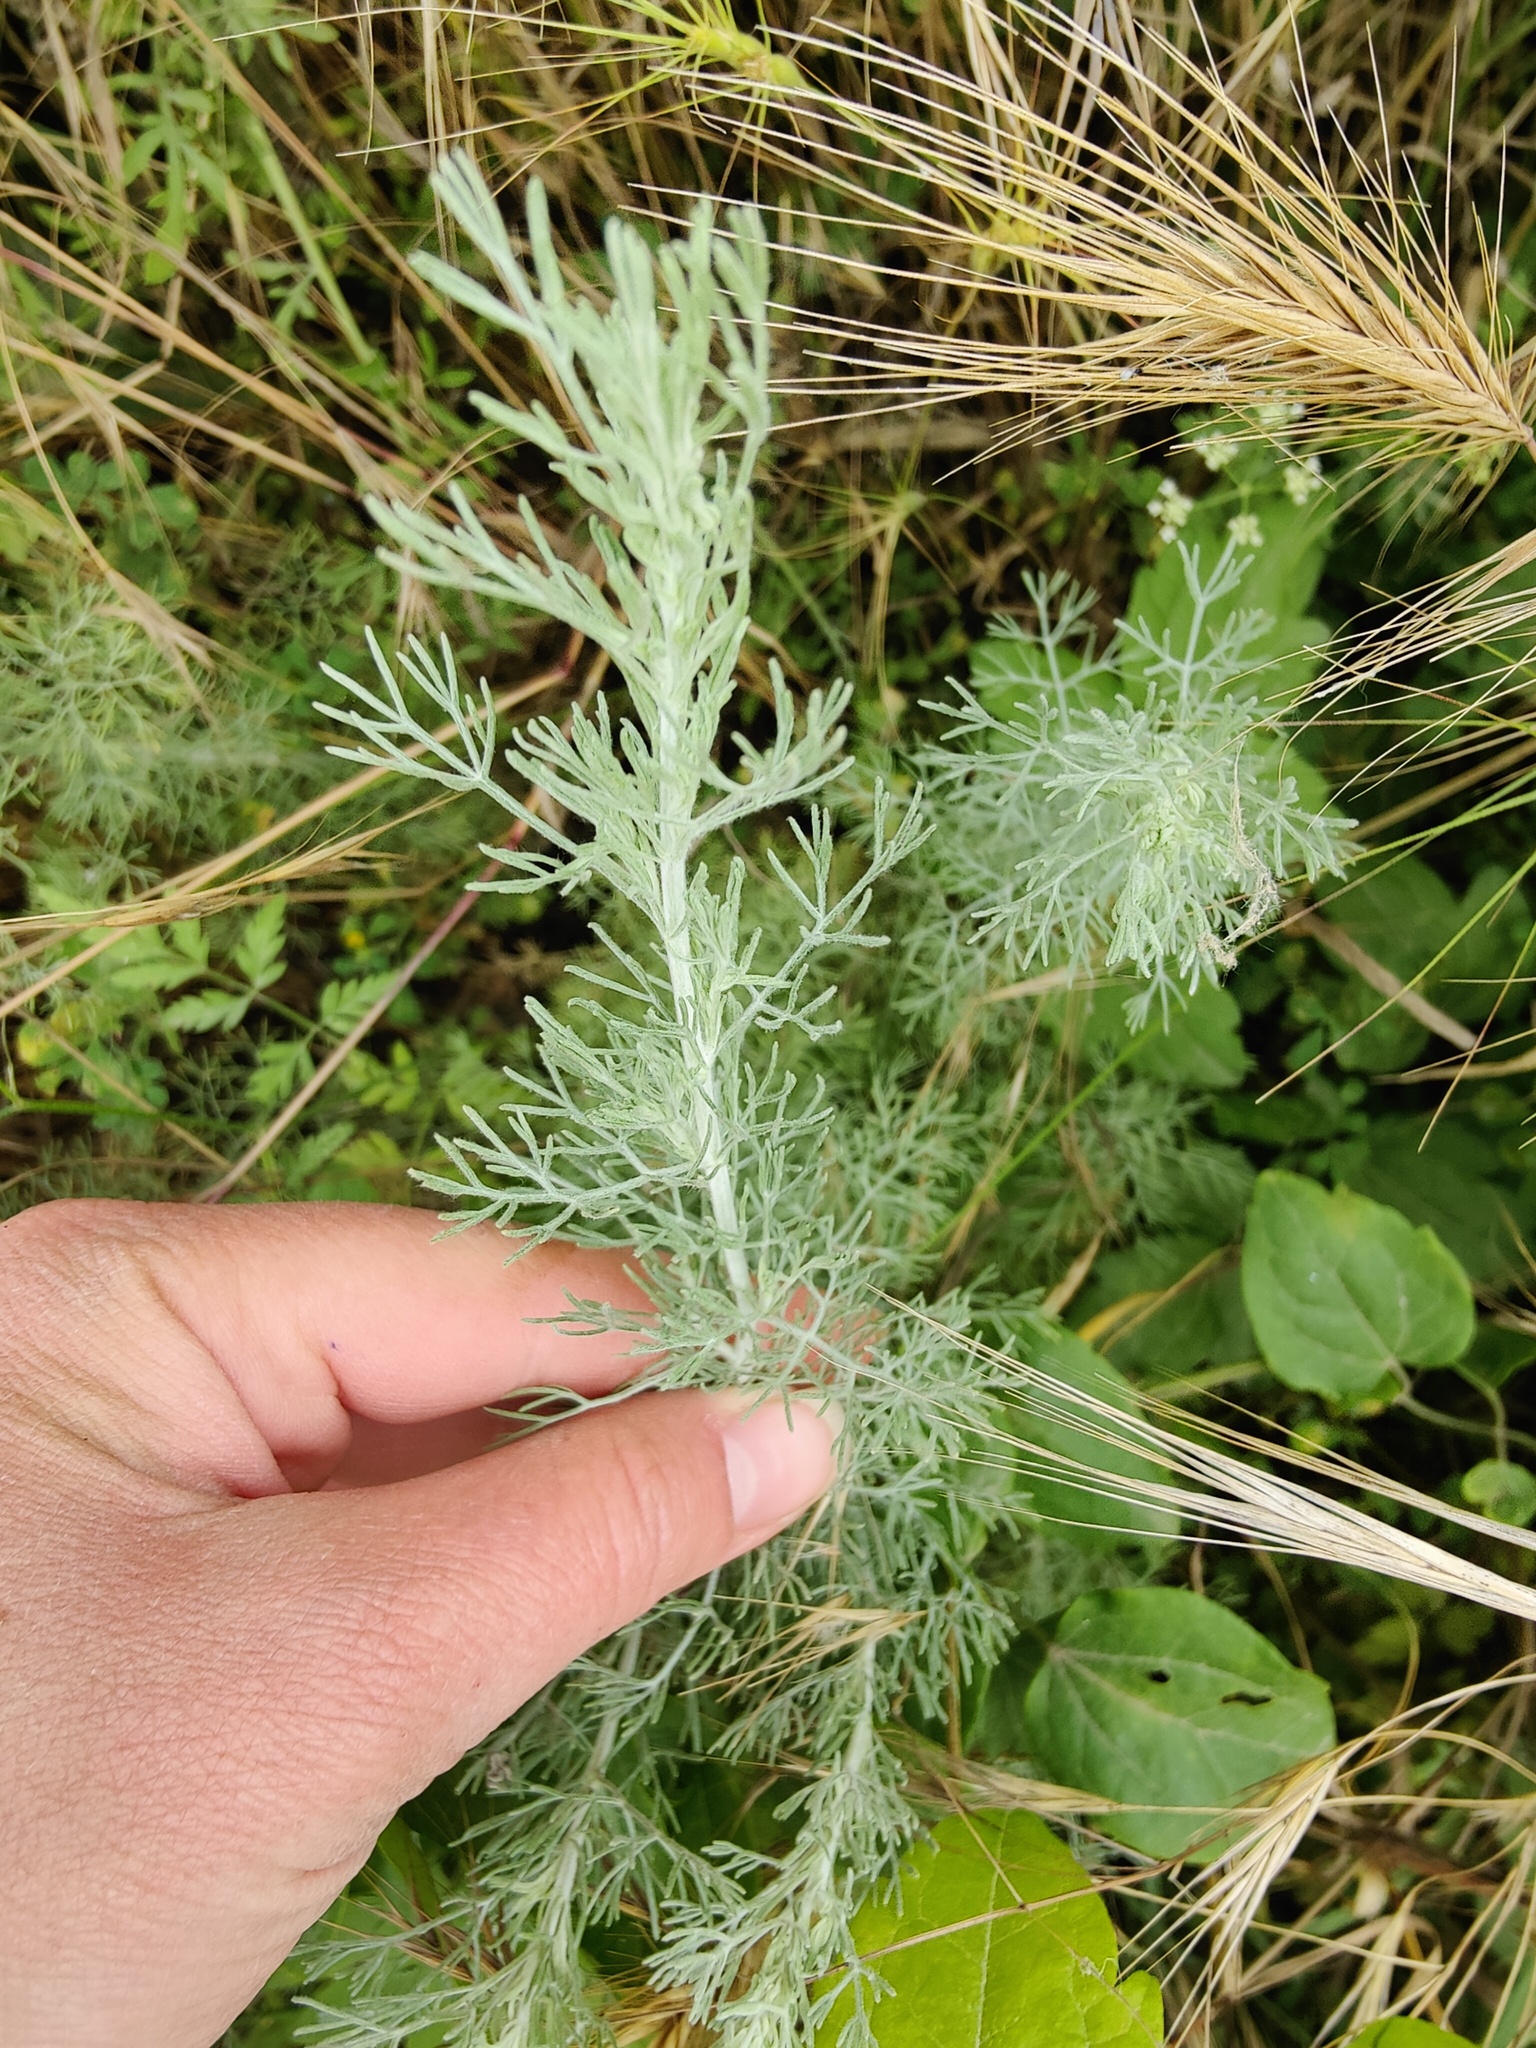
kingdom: Plantae
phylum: Tracheophyta
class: Magnoliopsida
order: Asterales
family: Asteraceae
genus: Artemisia
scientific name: Artemisia taurica
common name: Tauric wormwood
